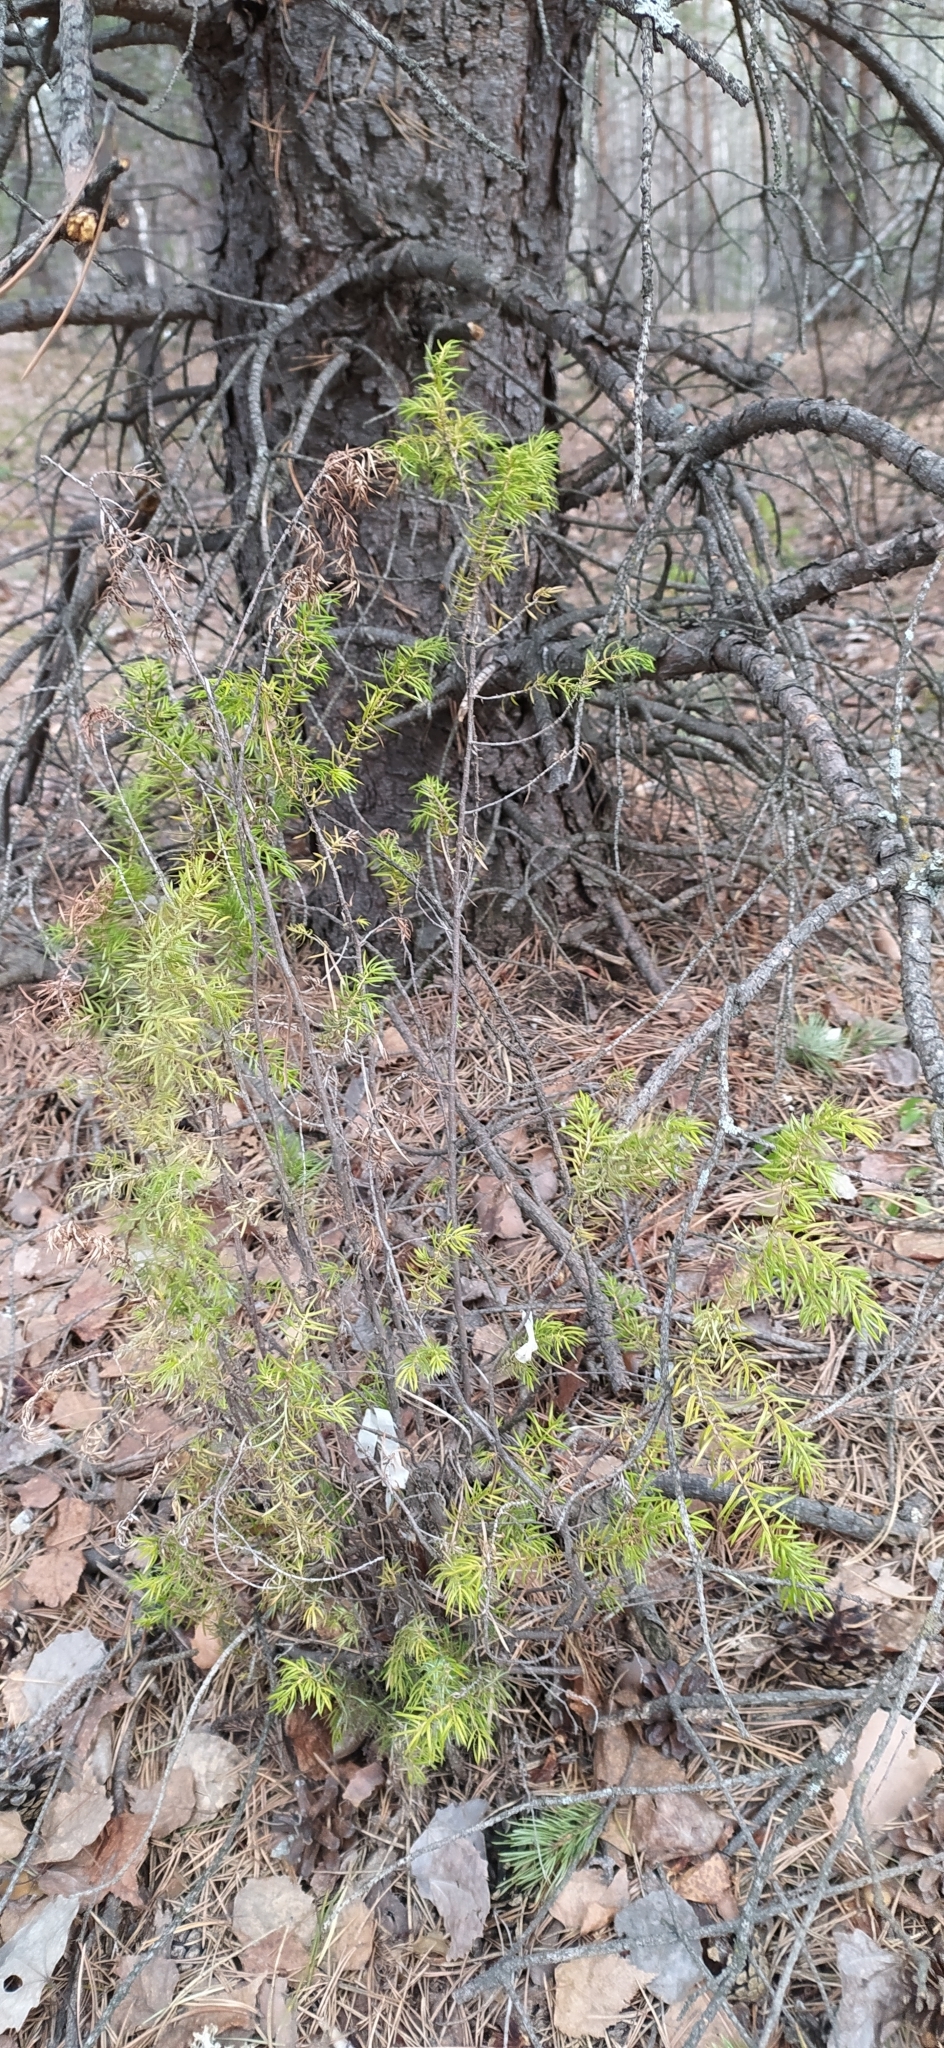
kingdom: Plantae
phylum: Tracheophyta
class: Pinopsida
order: Pinales
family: Cupressaceae
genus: Juniperus
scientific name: Juniperus communis
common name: Common juniper
